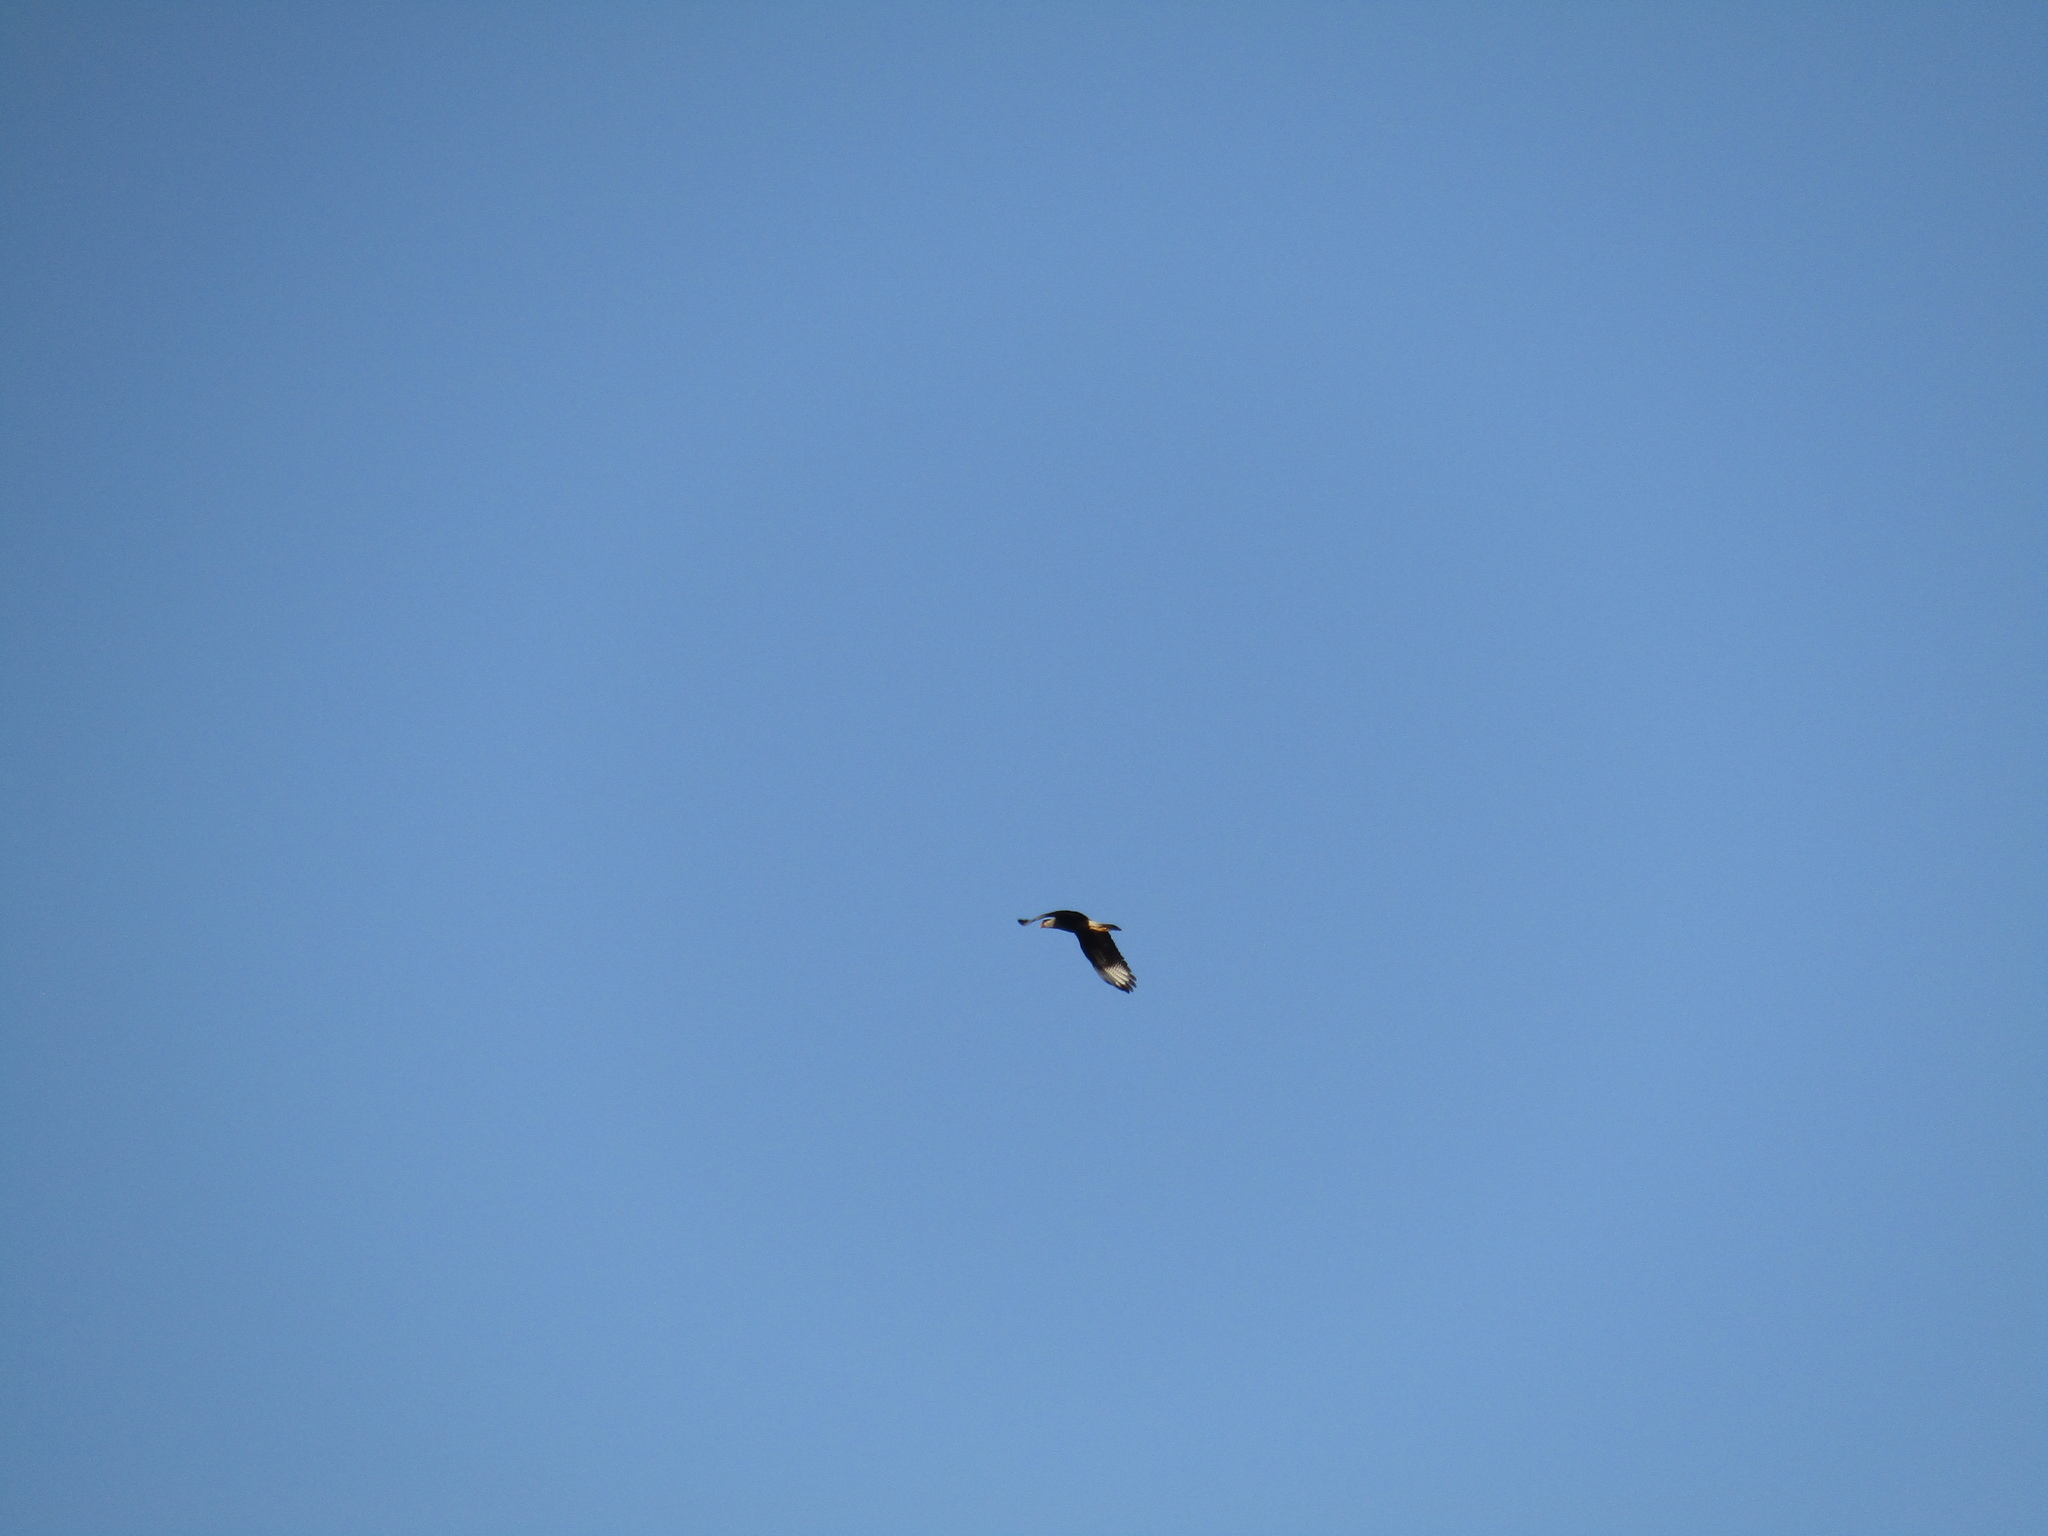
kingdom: Animalia
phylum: Chordata
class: Aves
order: Falconiformes
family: Falconidae
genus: Caracara
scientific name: Caracara plancus
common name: Southern caracara
